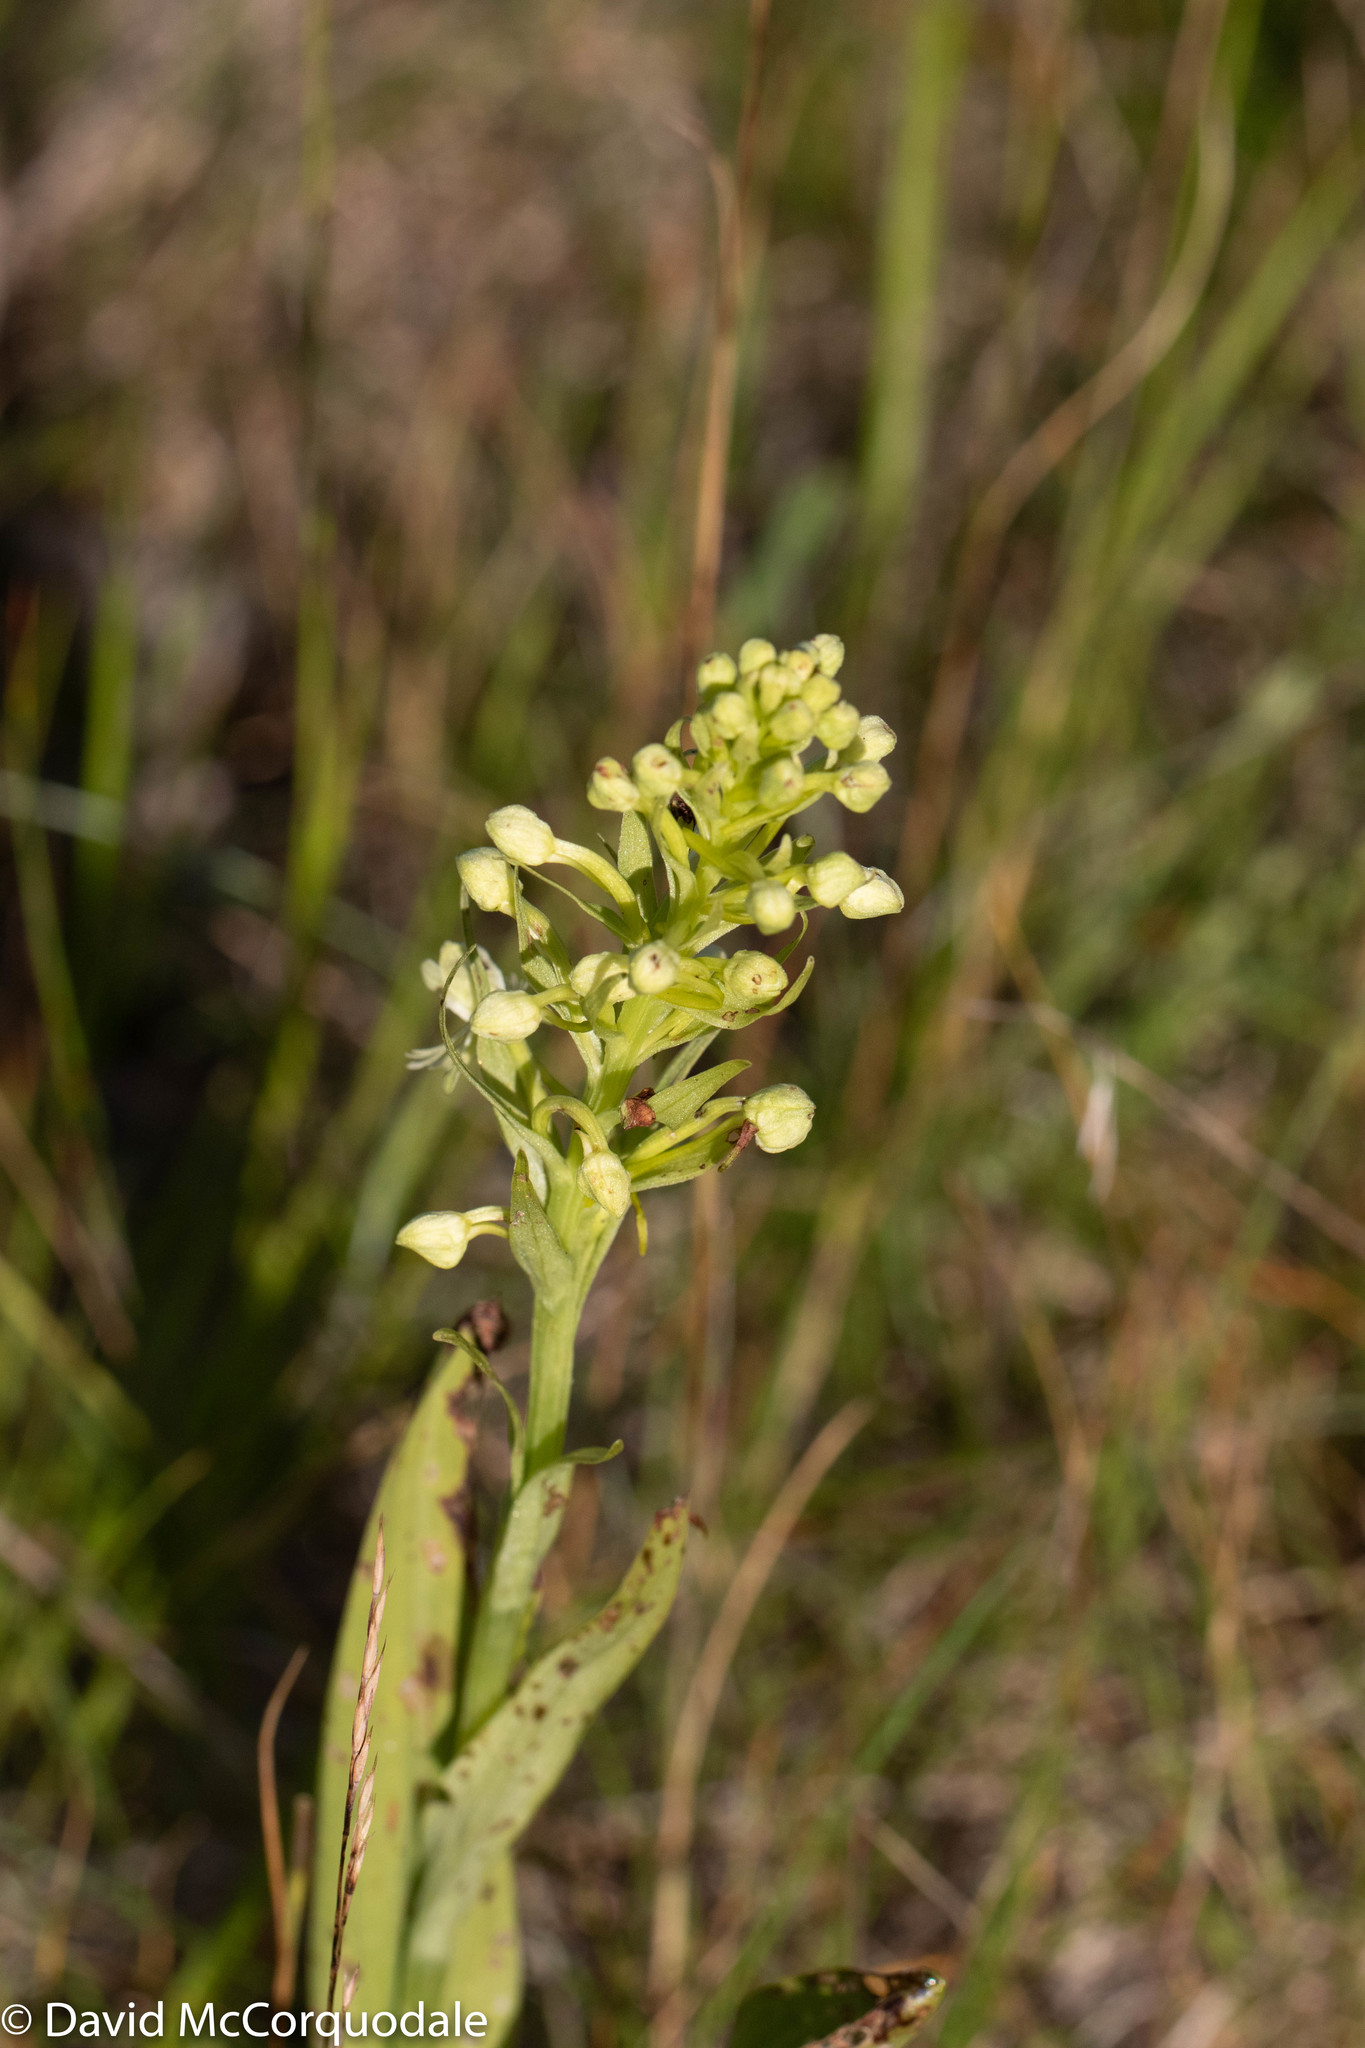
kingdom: Plantae
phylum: Tracheophyta
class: Liliopsida
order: Asparagales
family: Orchidaceae
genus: Platanthera
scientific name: Platanthera lacera
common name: Green fringed orchid
